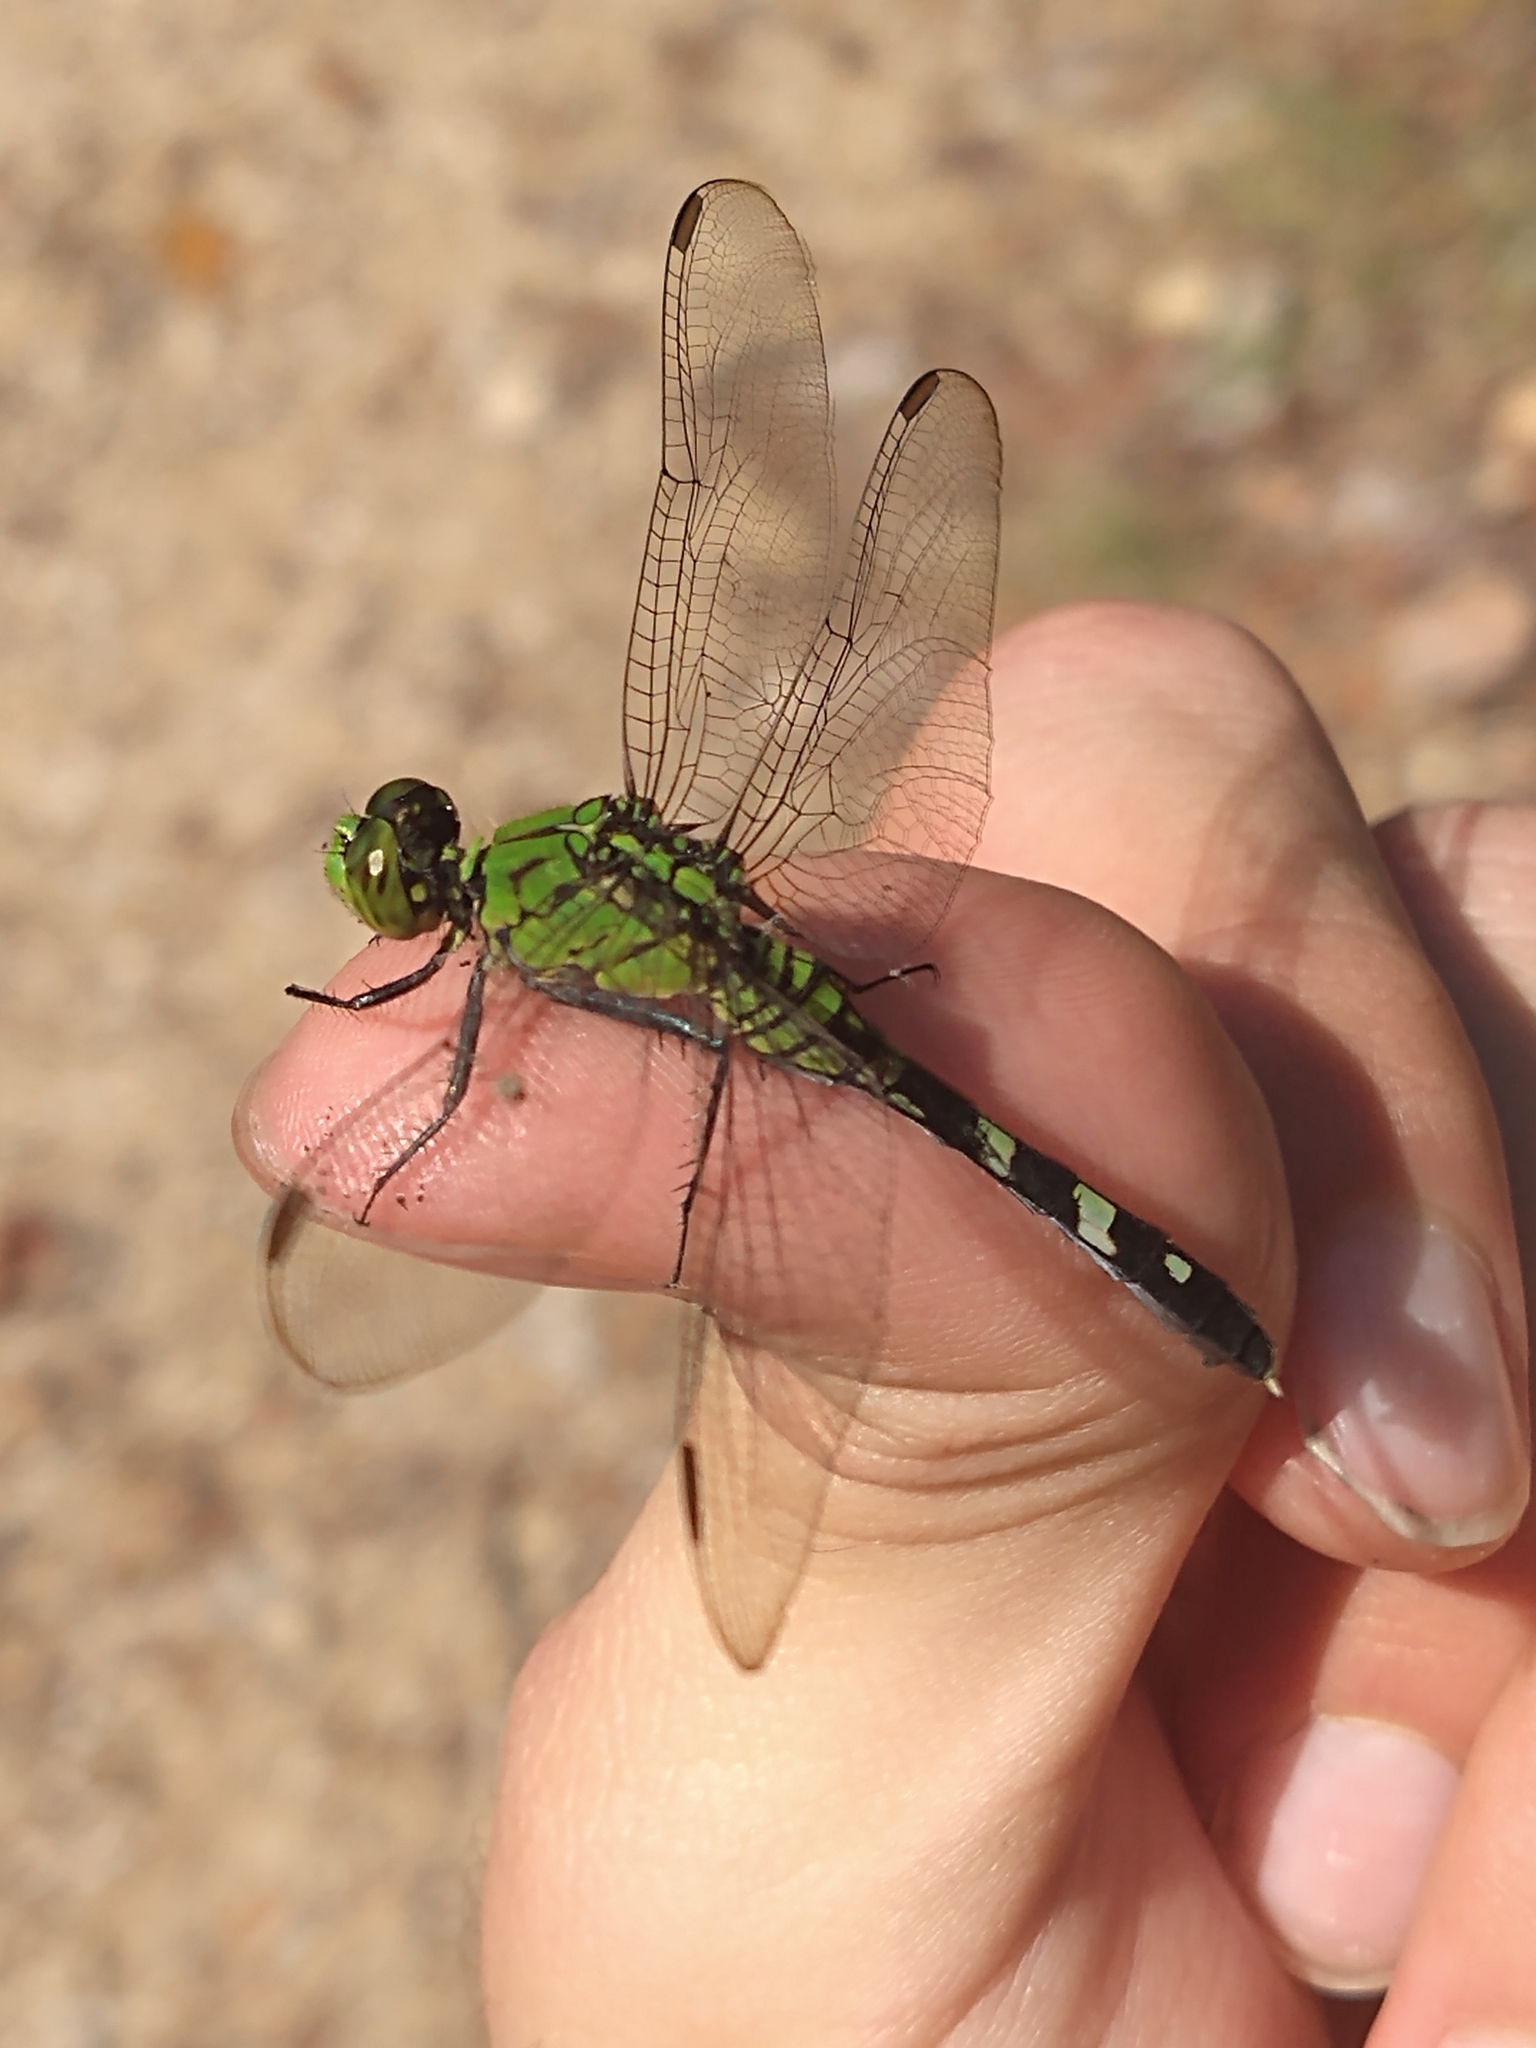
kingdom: Animalia
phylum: Arthropoda
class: Insecta
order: Odonata
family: Libellulidae
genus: Erythemis
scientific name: Erythemis simplicicollis
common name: Eastern pondhawk
